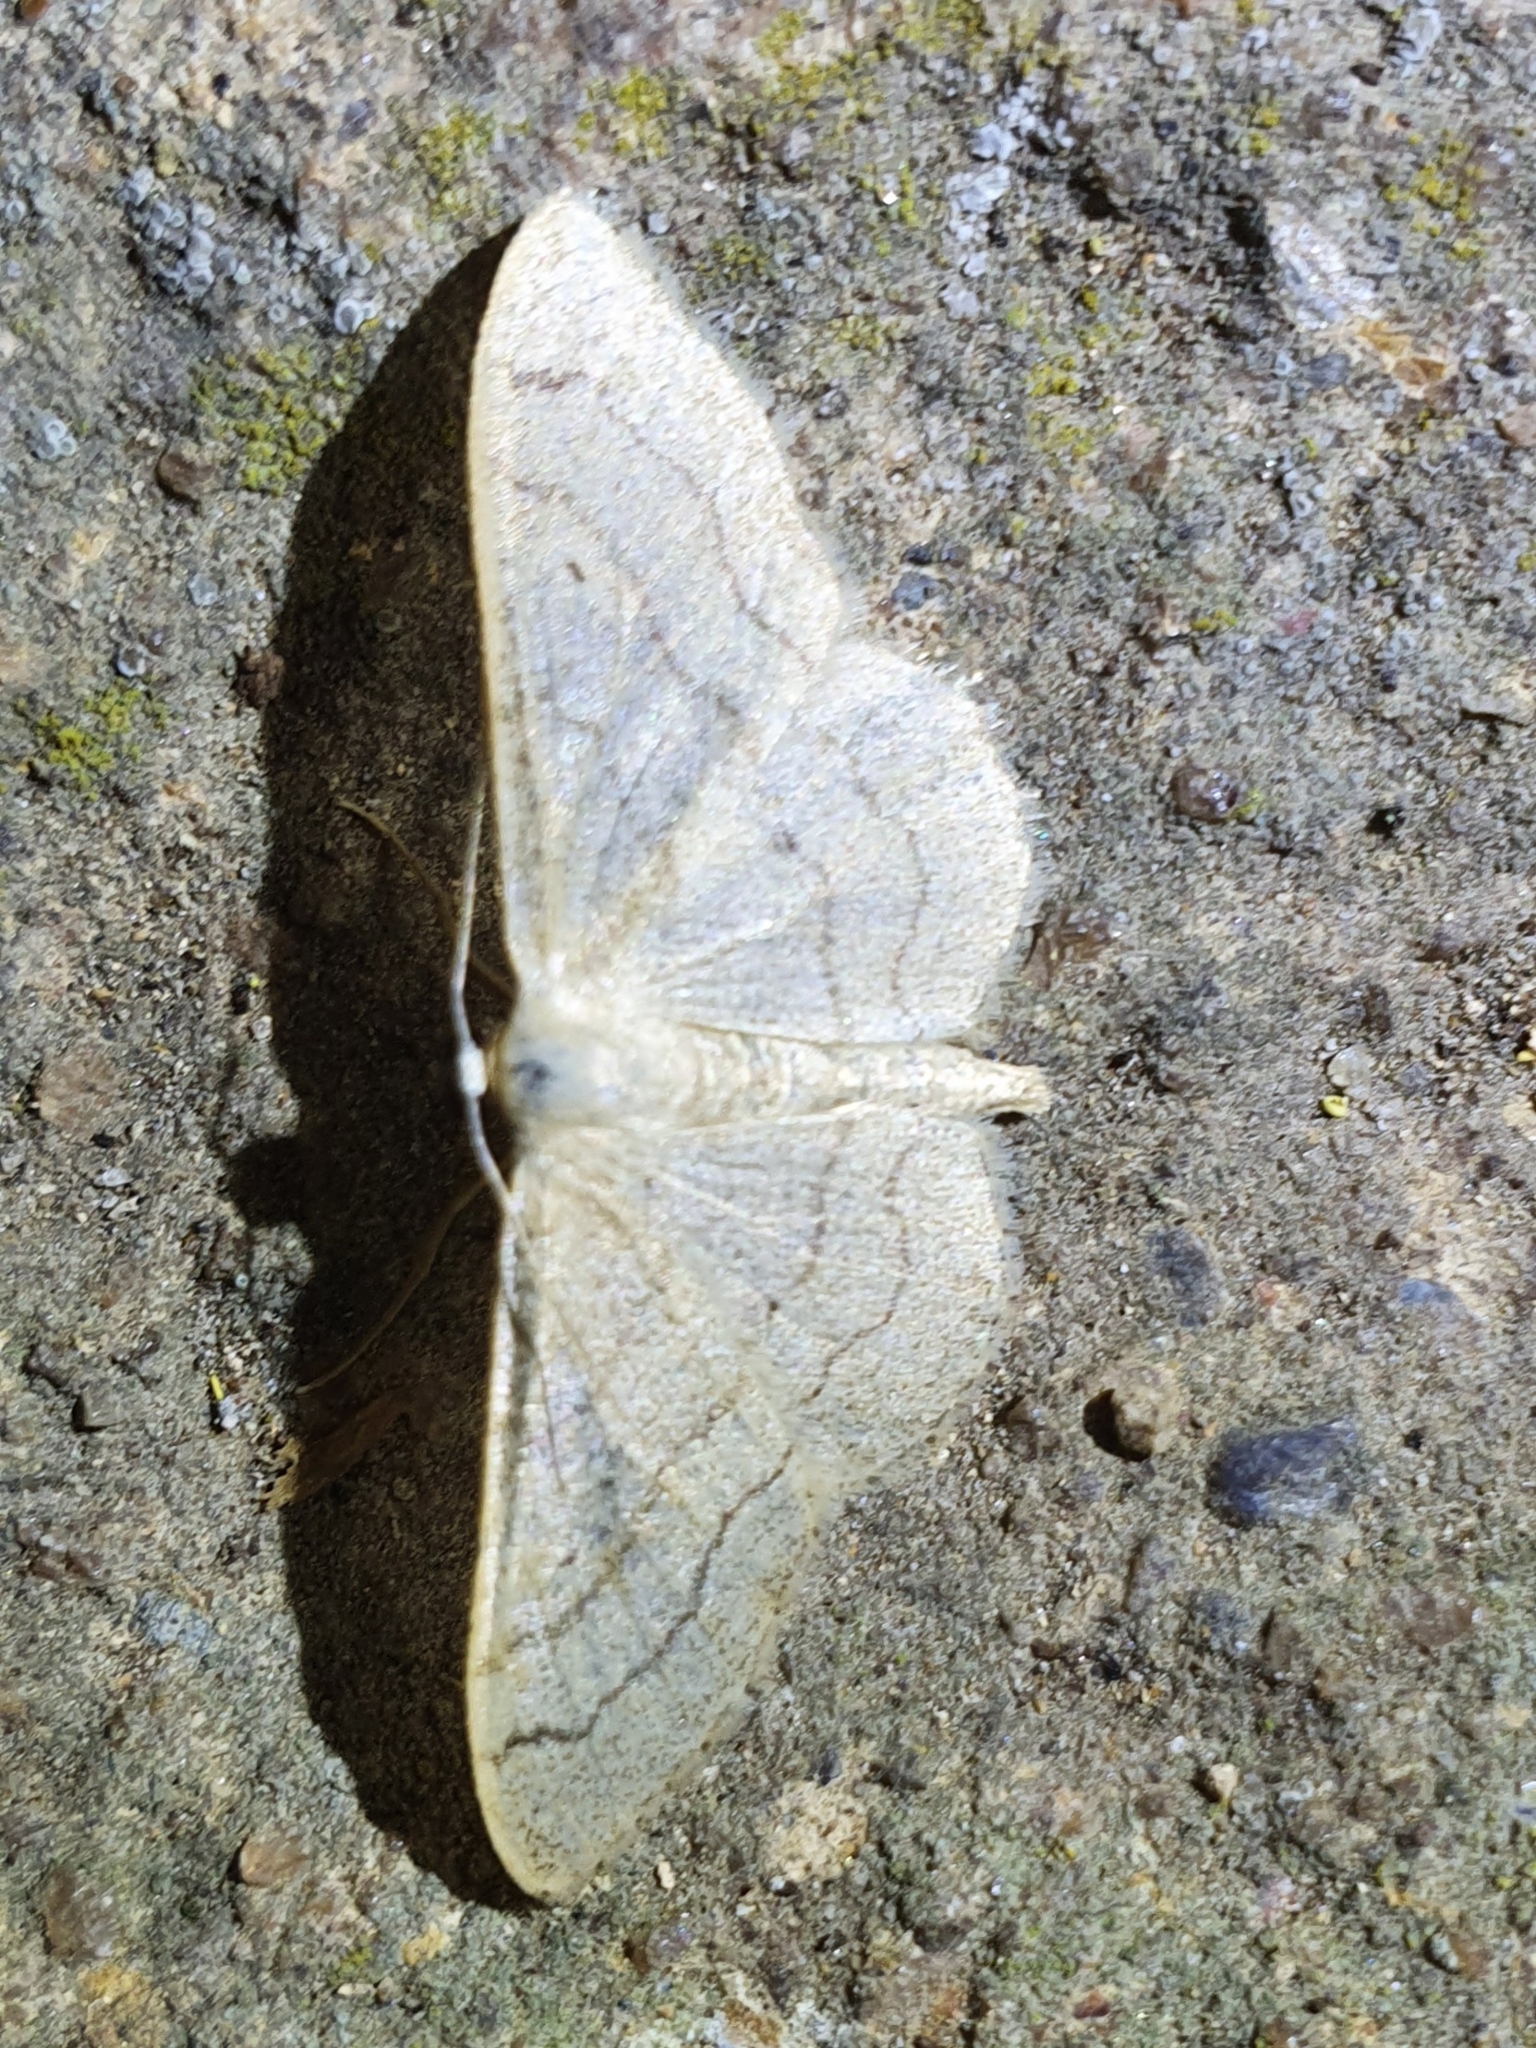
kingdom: Animalia
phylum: Arthropoda
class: Insecta
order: Lepidoptera
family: Geometridae
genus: Idaea
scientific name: Idaea aversata
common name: Riband wave
